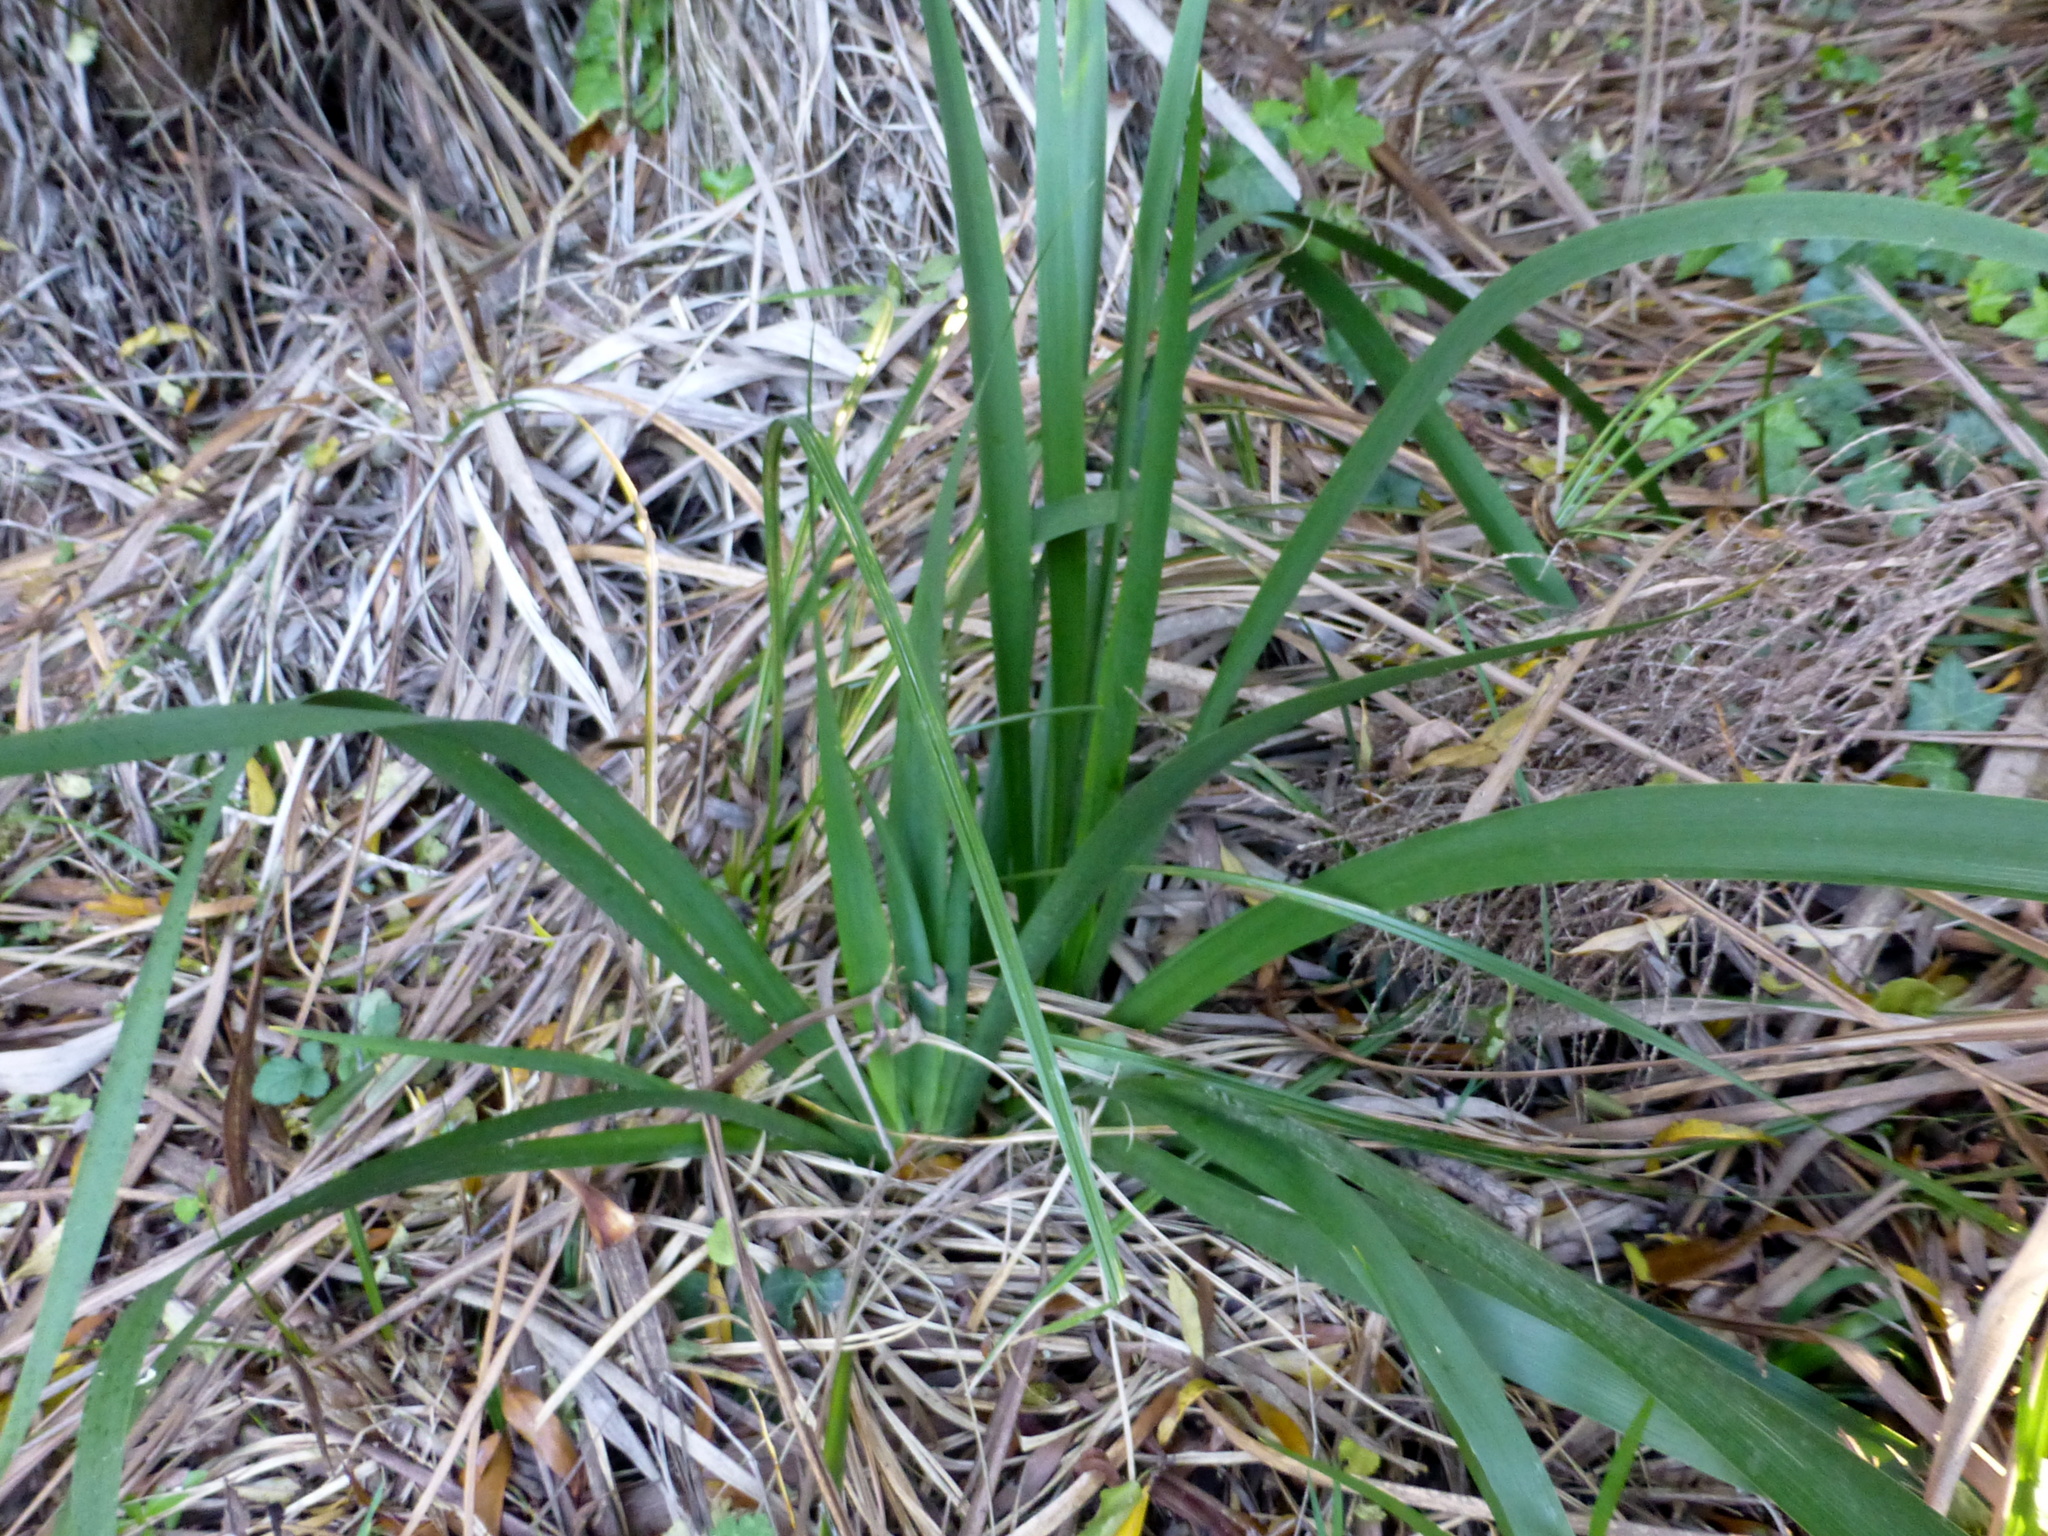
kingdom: Plantae
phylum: Tracheophyta
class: Liliopsida
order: Asparagales
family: Iridaceae
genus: Iris
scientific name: Iris pseudacorus
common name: Yellow flag
